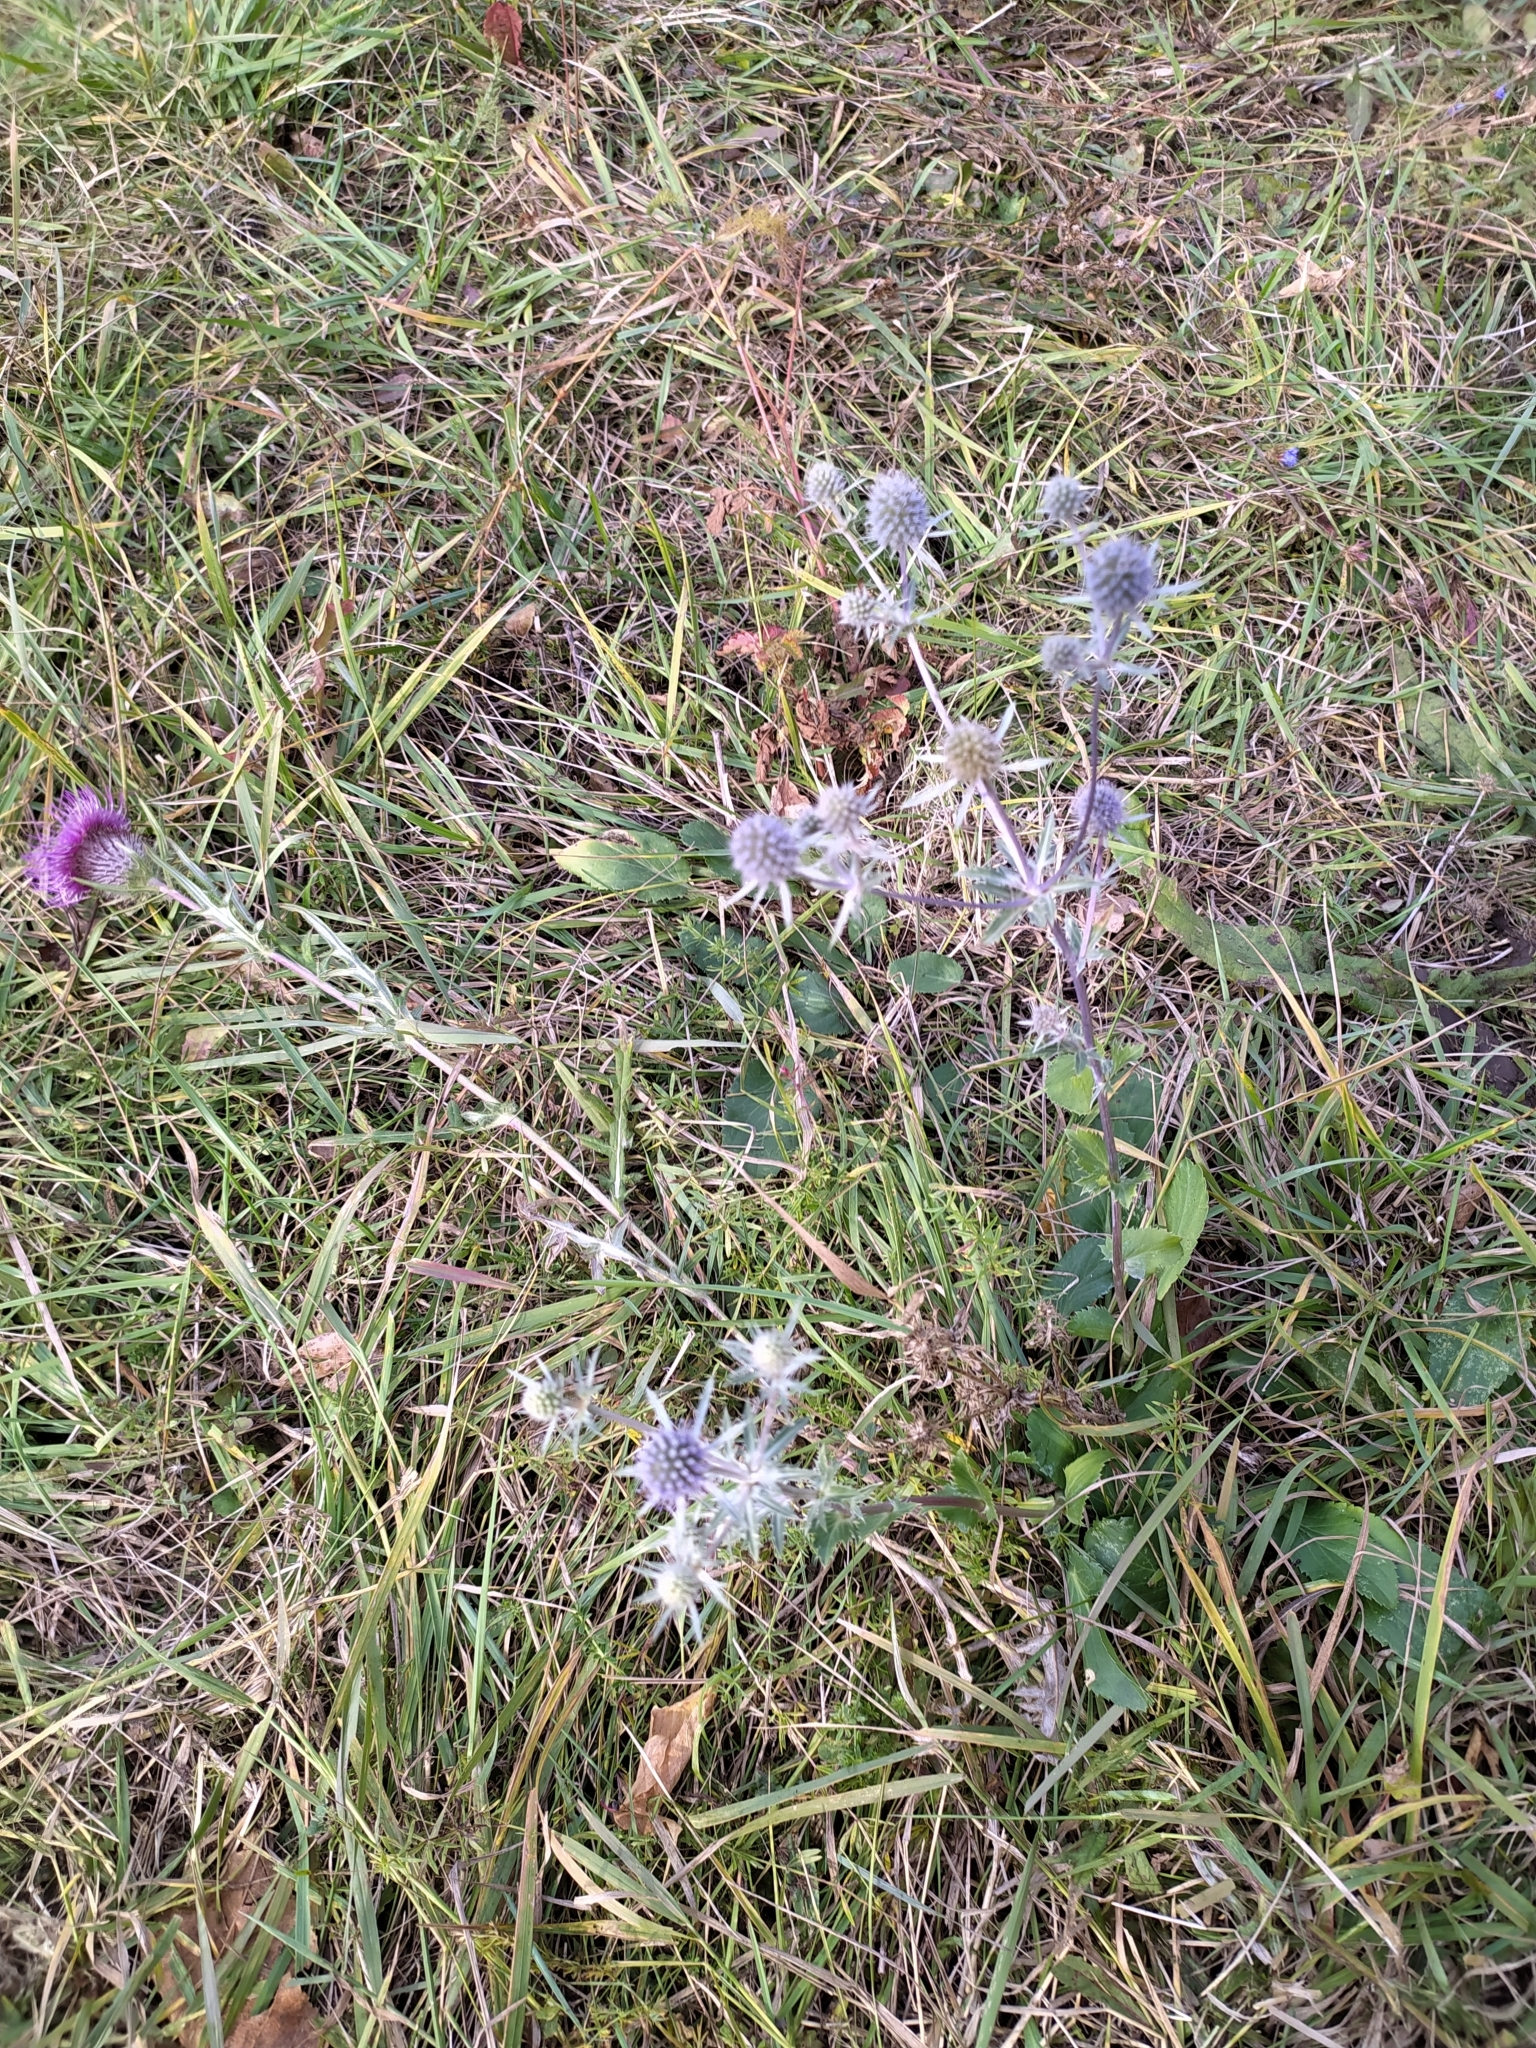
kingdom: Plantae
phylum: Tracheophyta
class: Magnoliopsida
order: Apiales
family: Apiaceae
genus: Eryngium
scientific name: Eryngium planum
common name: Blue eryngo
